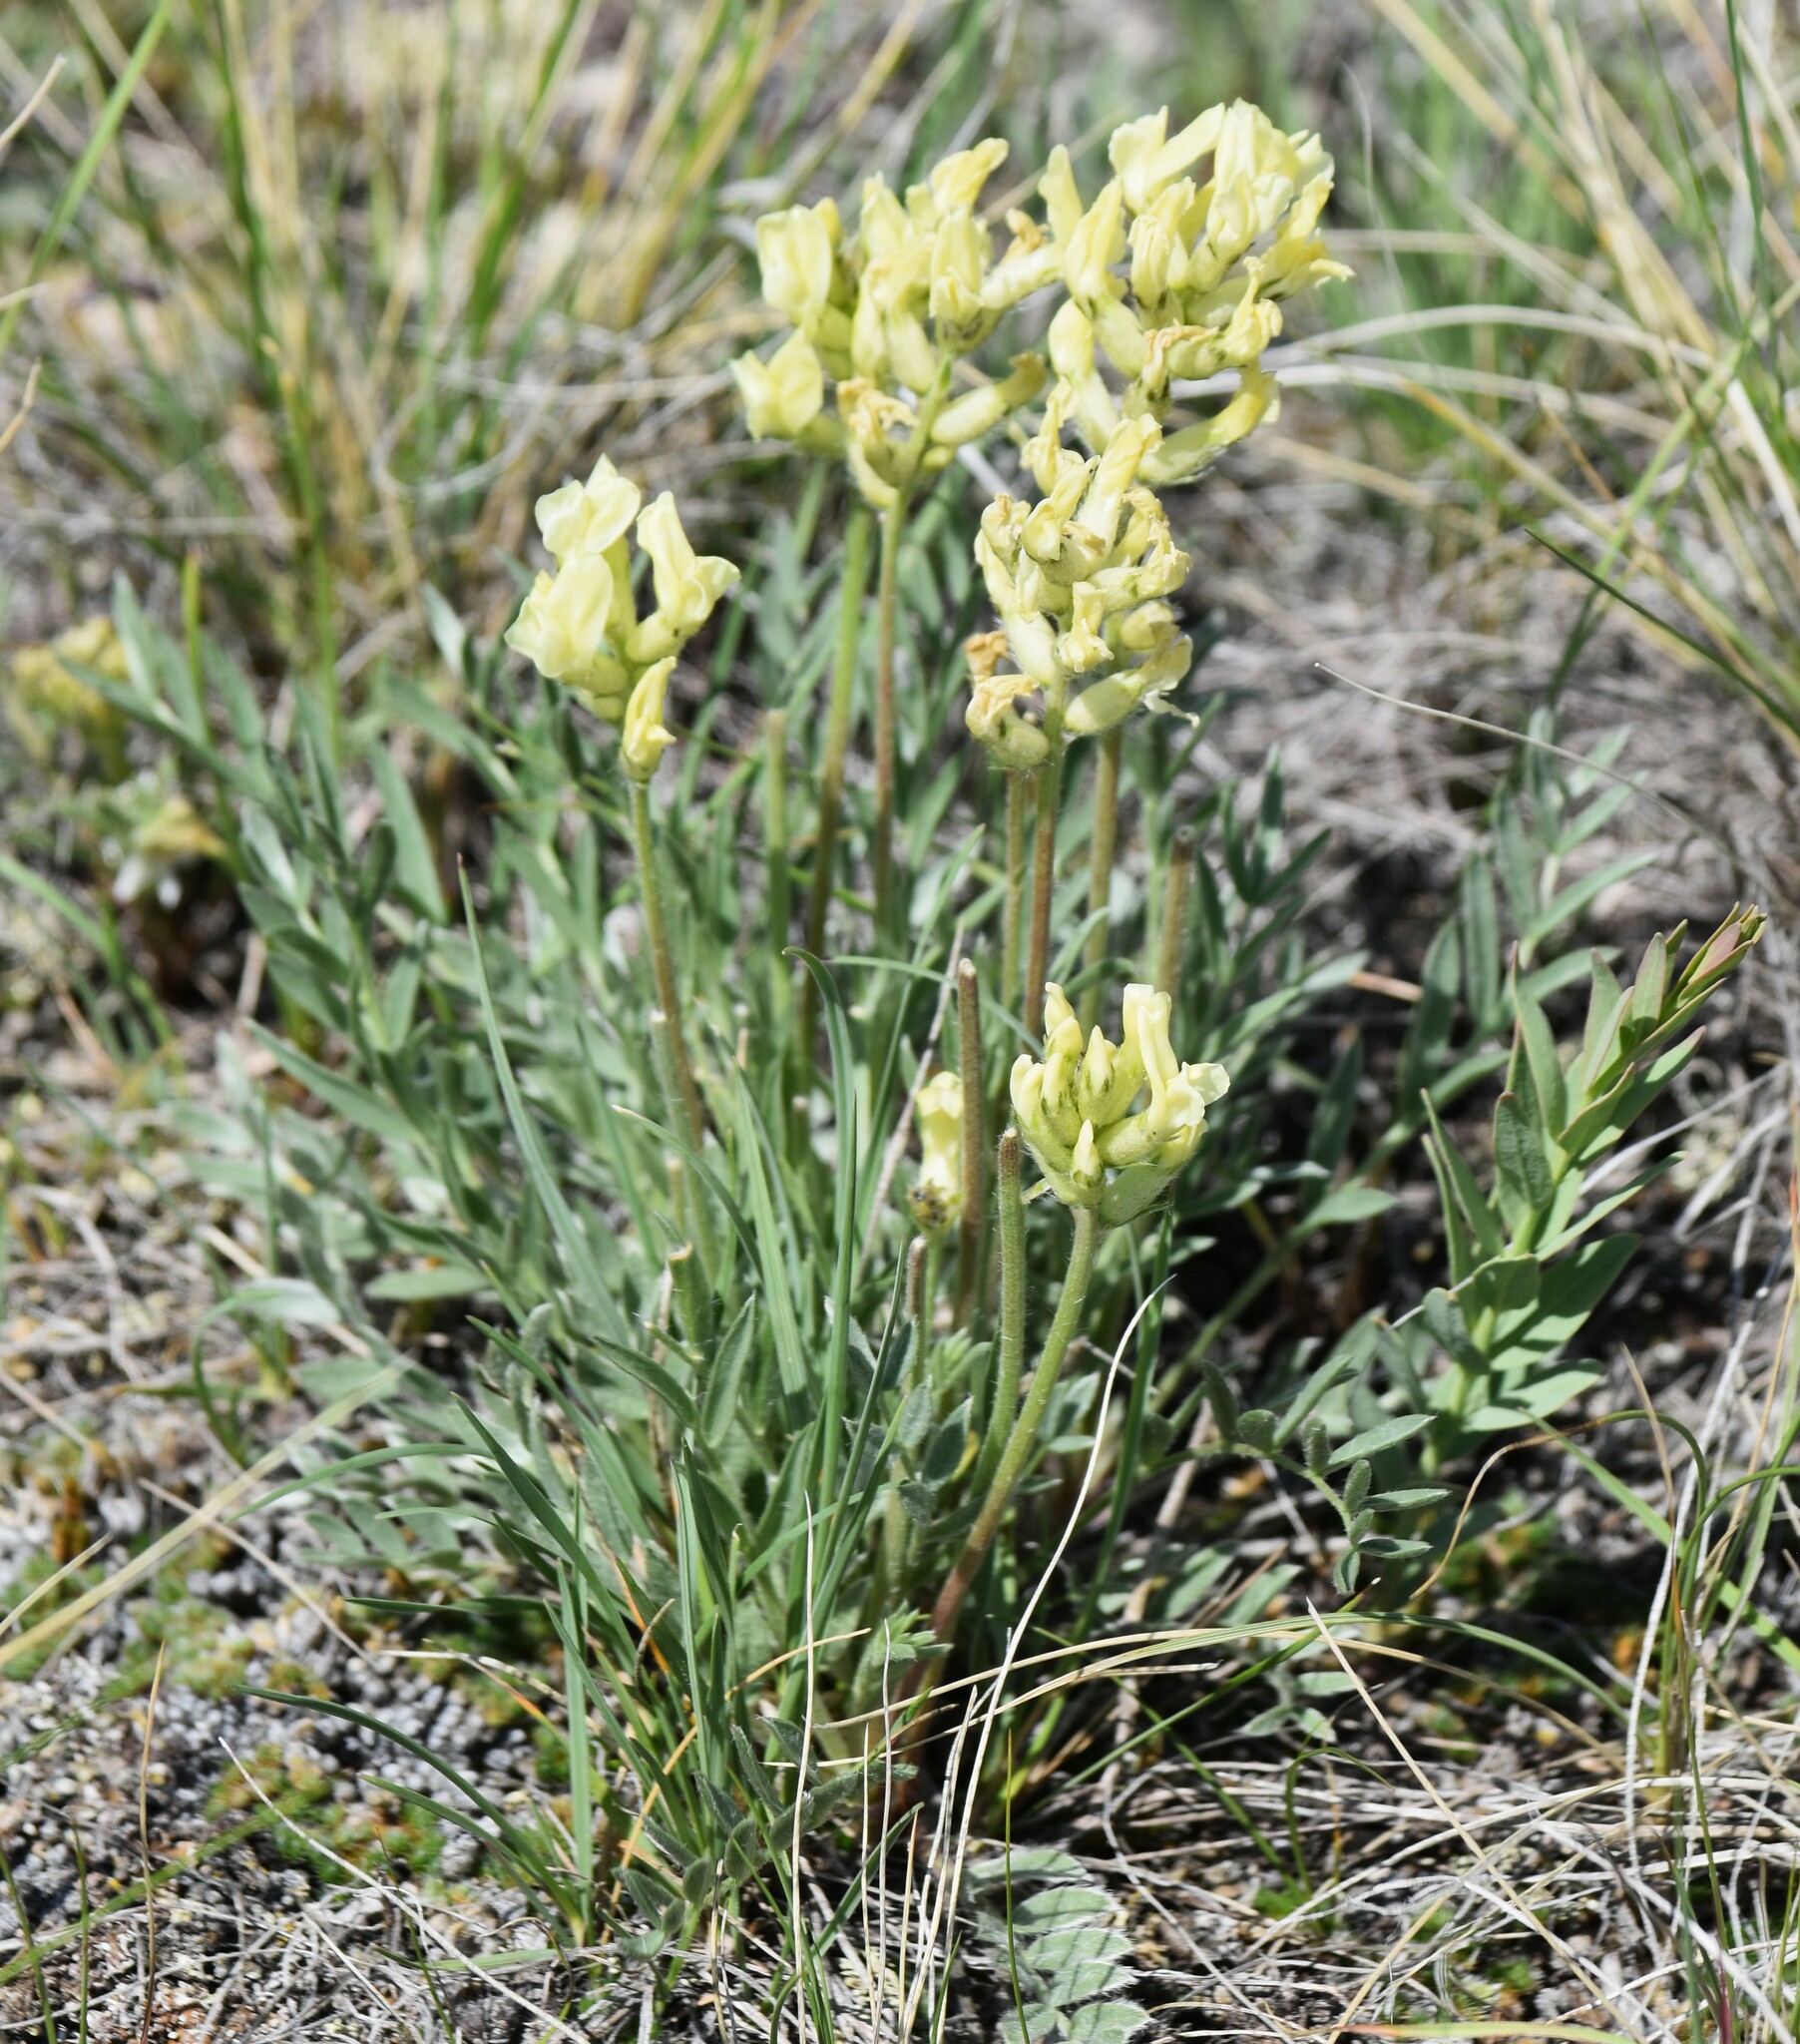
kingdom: Plantae
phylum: Tracheophyta
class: Magnoliopsida
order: Fabales
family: Fabaceae
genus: Oxytropis
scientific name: Oxytropis sericea
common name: Silky locoweed
